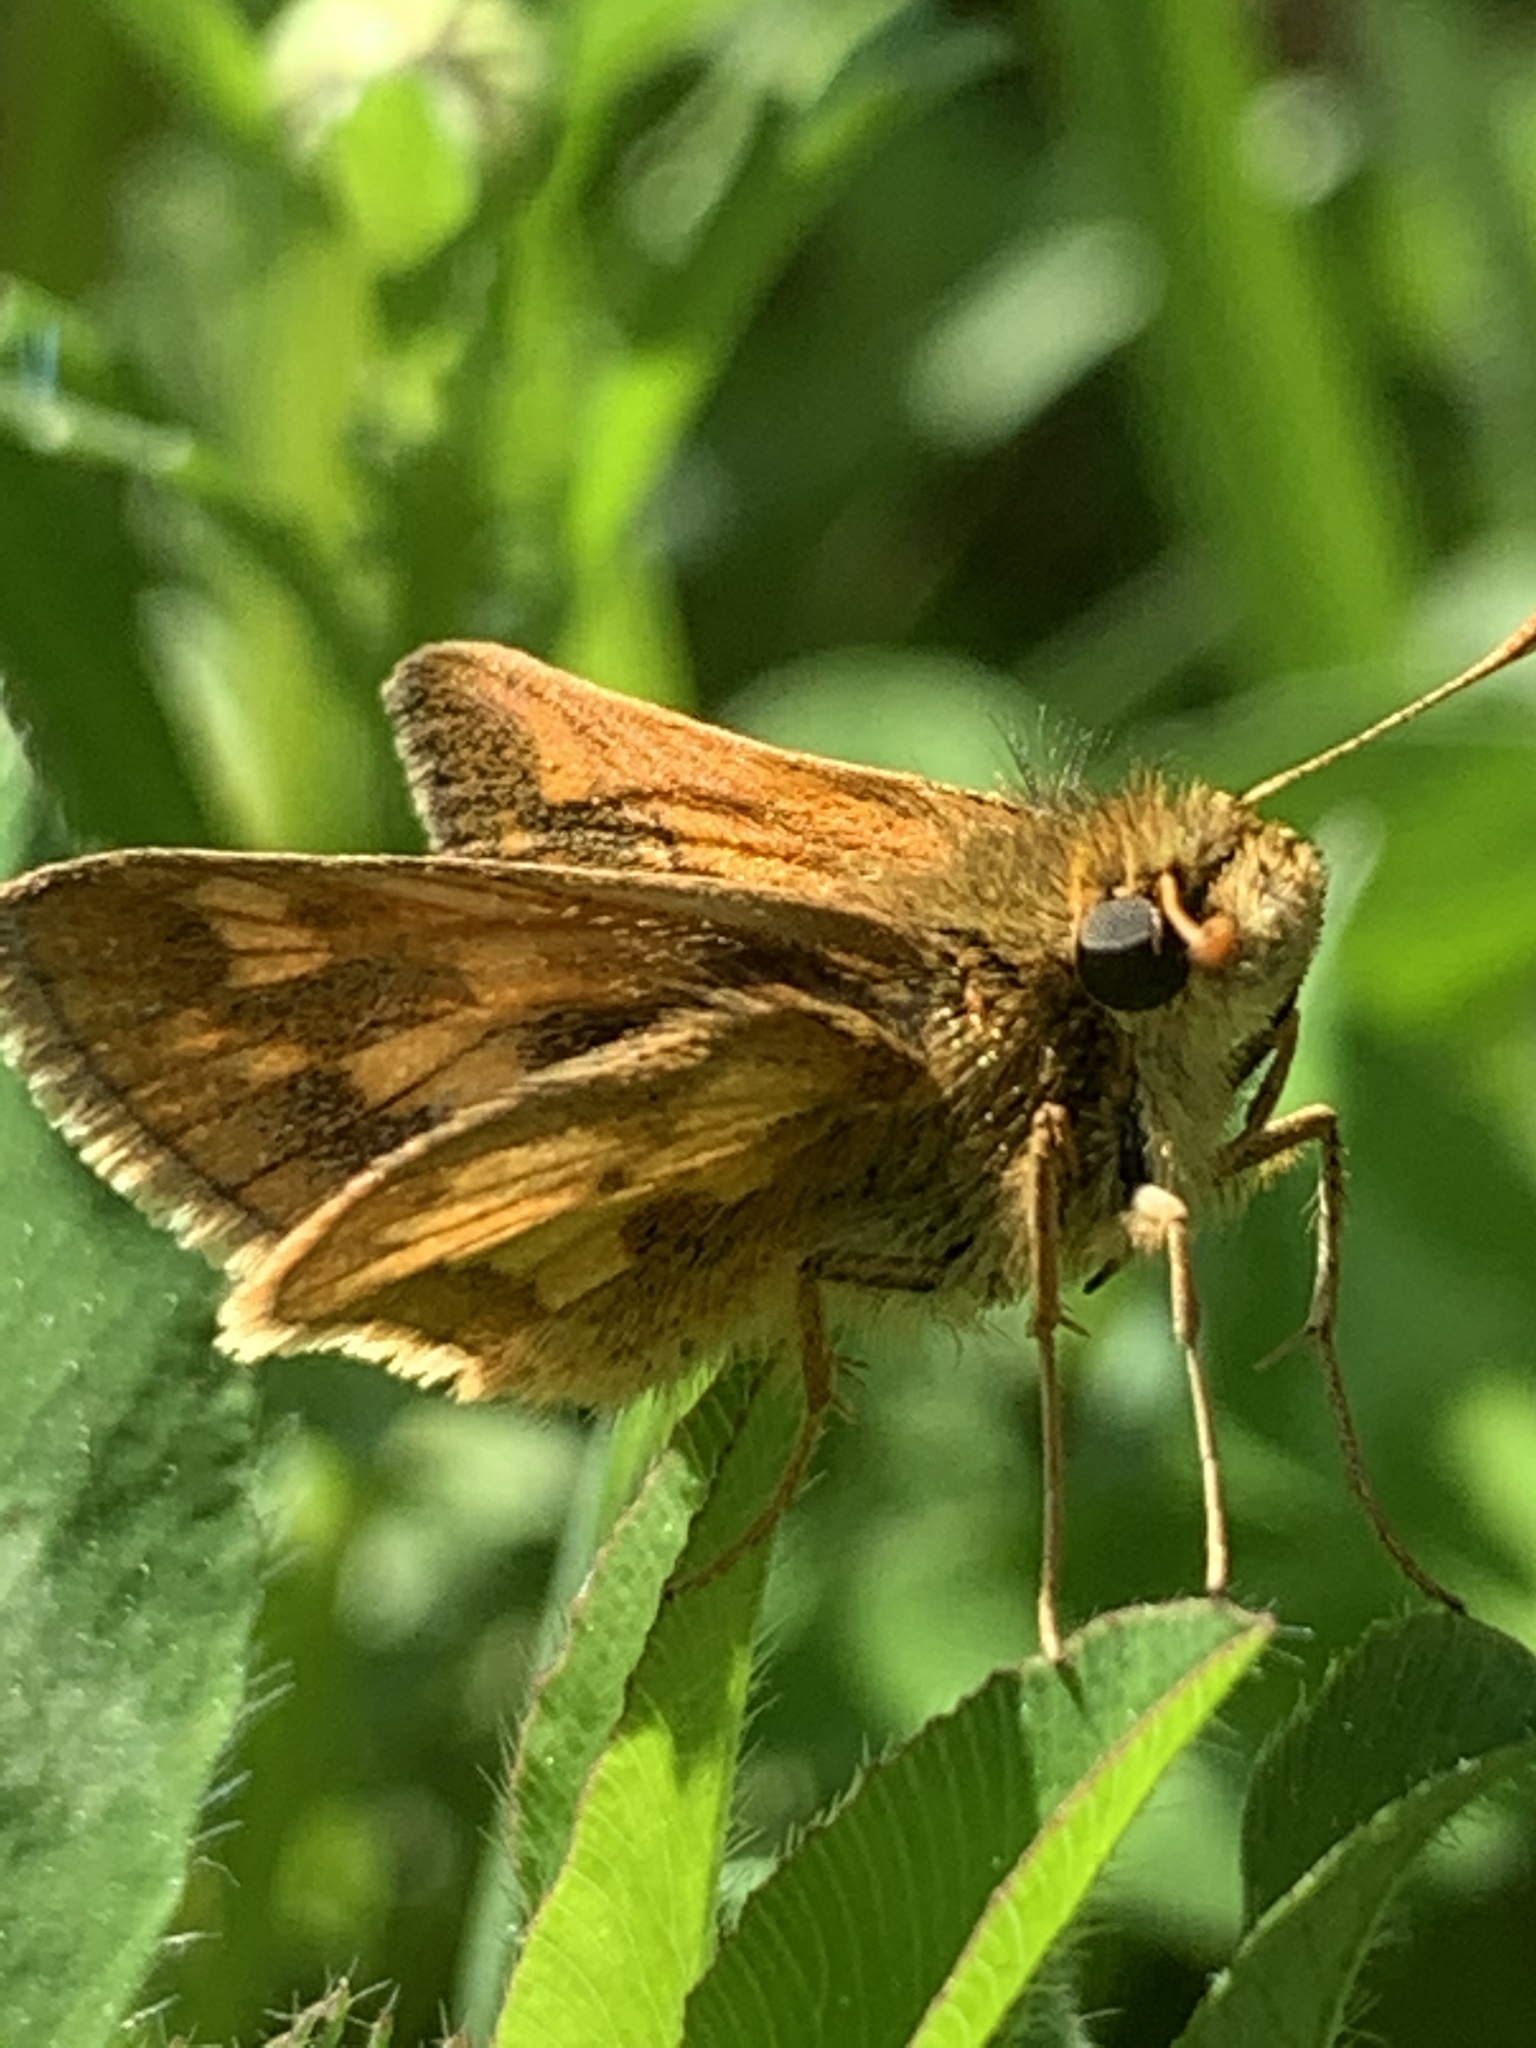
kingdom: Animalia
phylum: Arthropoda
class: Insecta
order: Lepidoptera
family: Hesperiidae
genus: Polites
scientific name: Polites coras
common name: Peck's skipper
